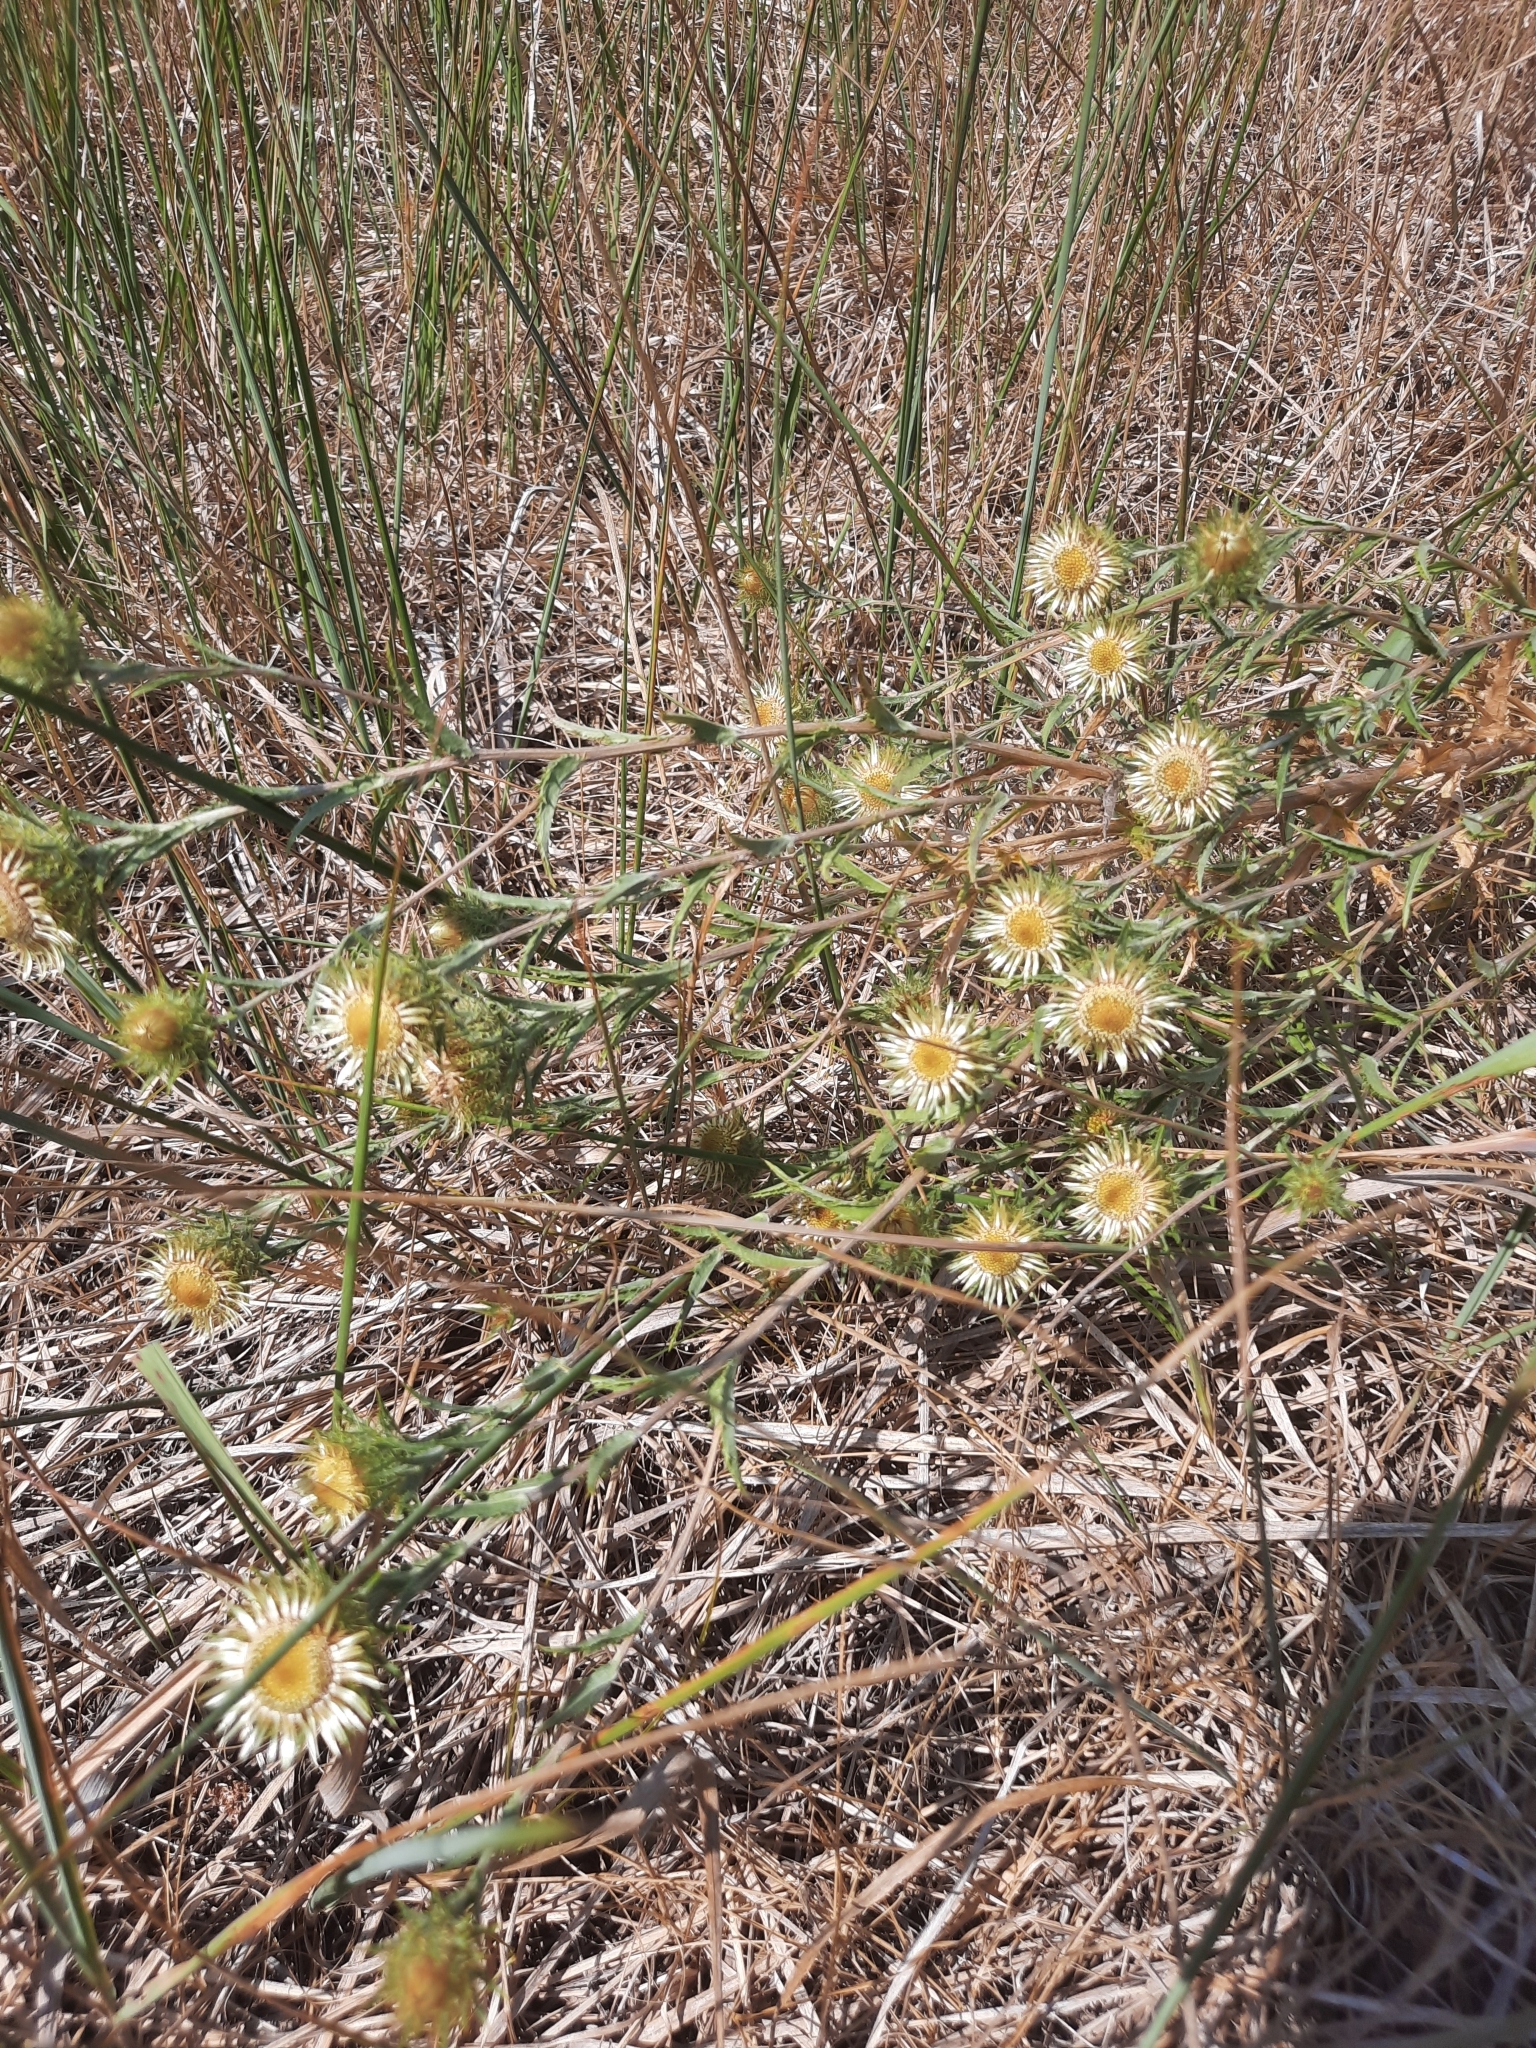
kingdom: Plantae
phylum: Tracheophyta
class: Magnoliopsida
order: Asterales
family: Asteraceae
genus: Carlina
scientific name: Carlina biebersteinii
